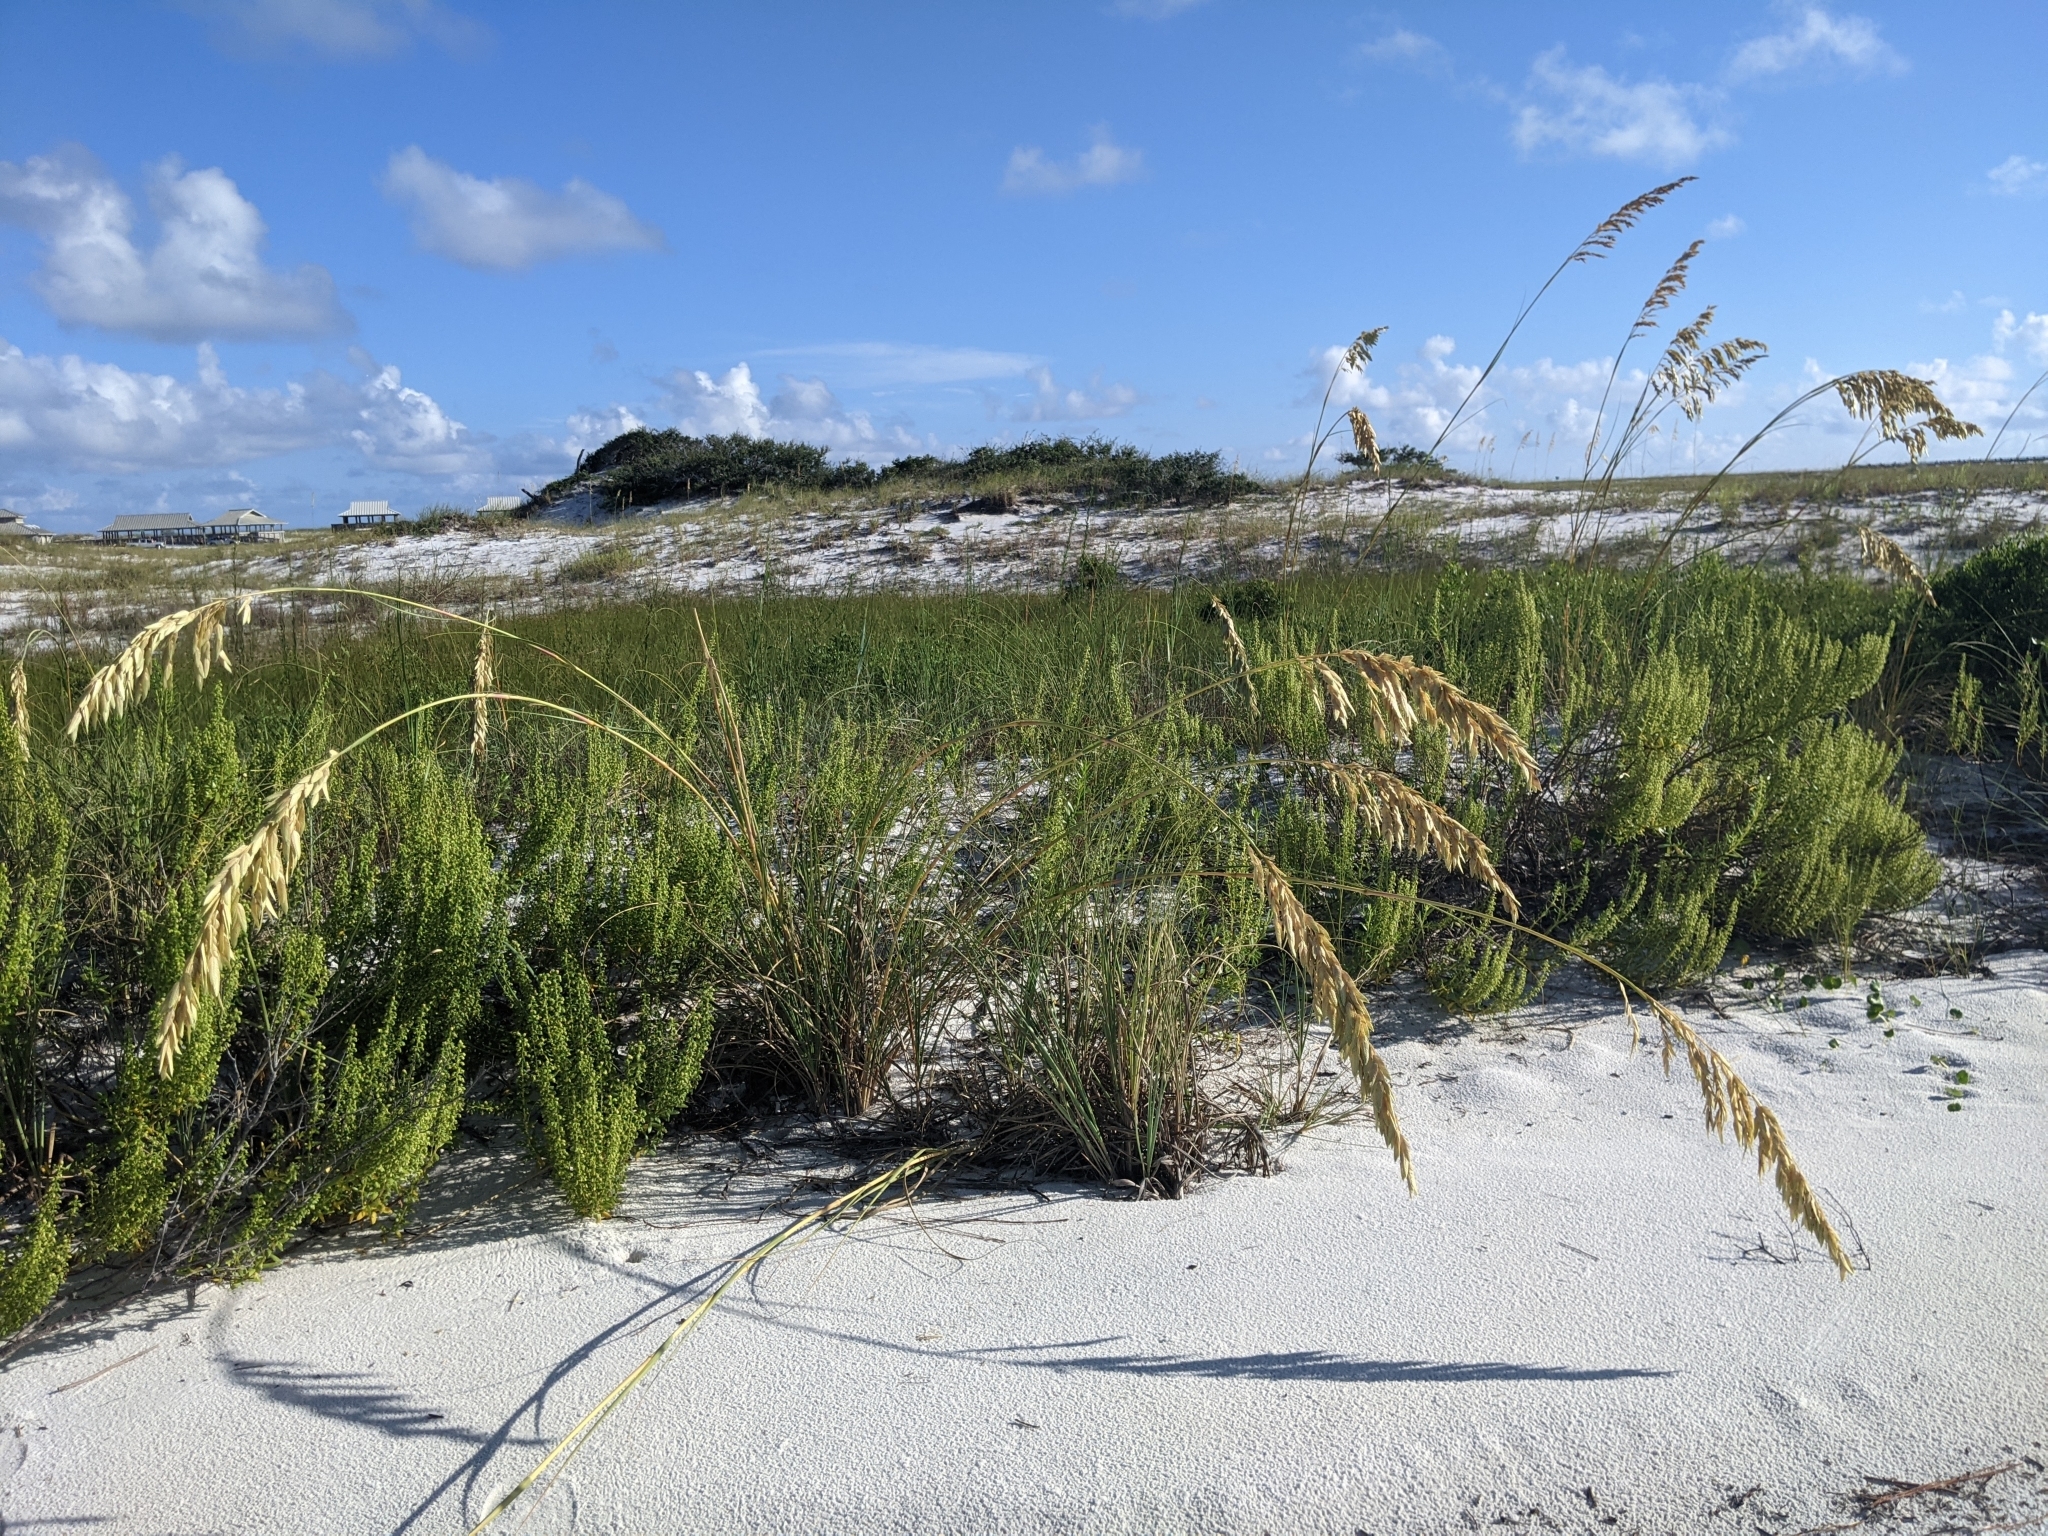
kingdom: Plantae
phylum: Tracheophyta
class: Liliopsida
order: Poales
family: Poaceae
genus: Uniola
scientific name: Uniola paniculata
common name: Seaside-oats
